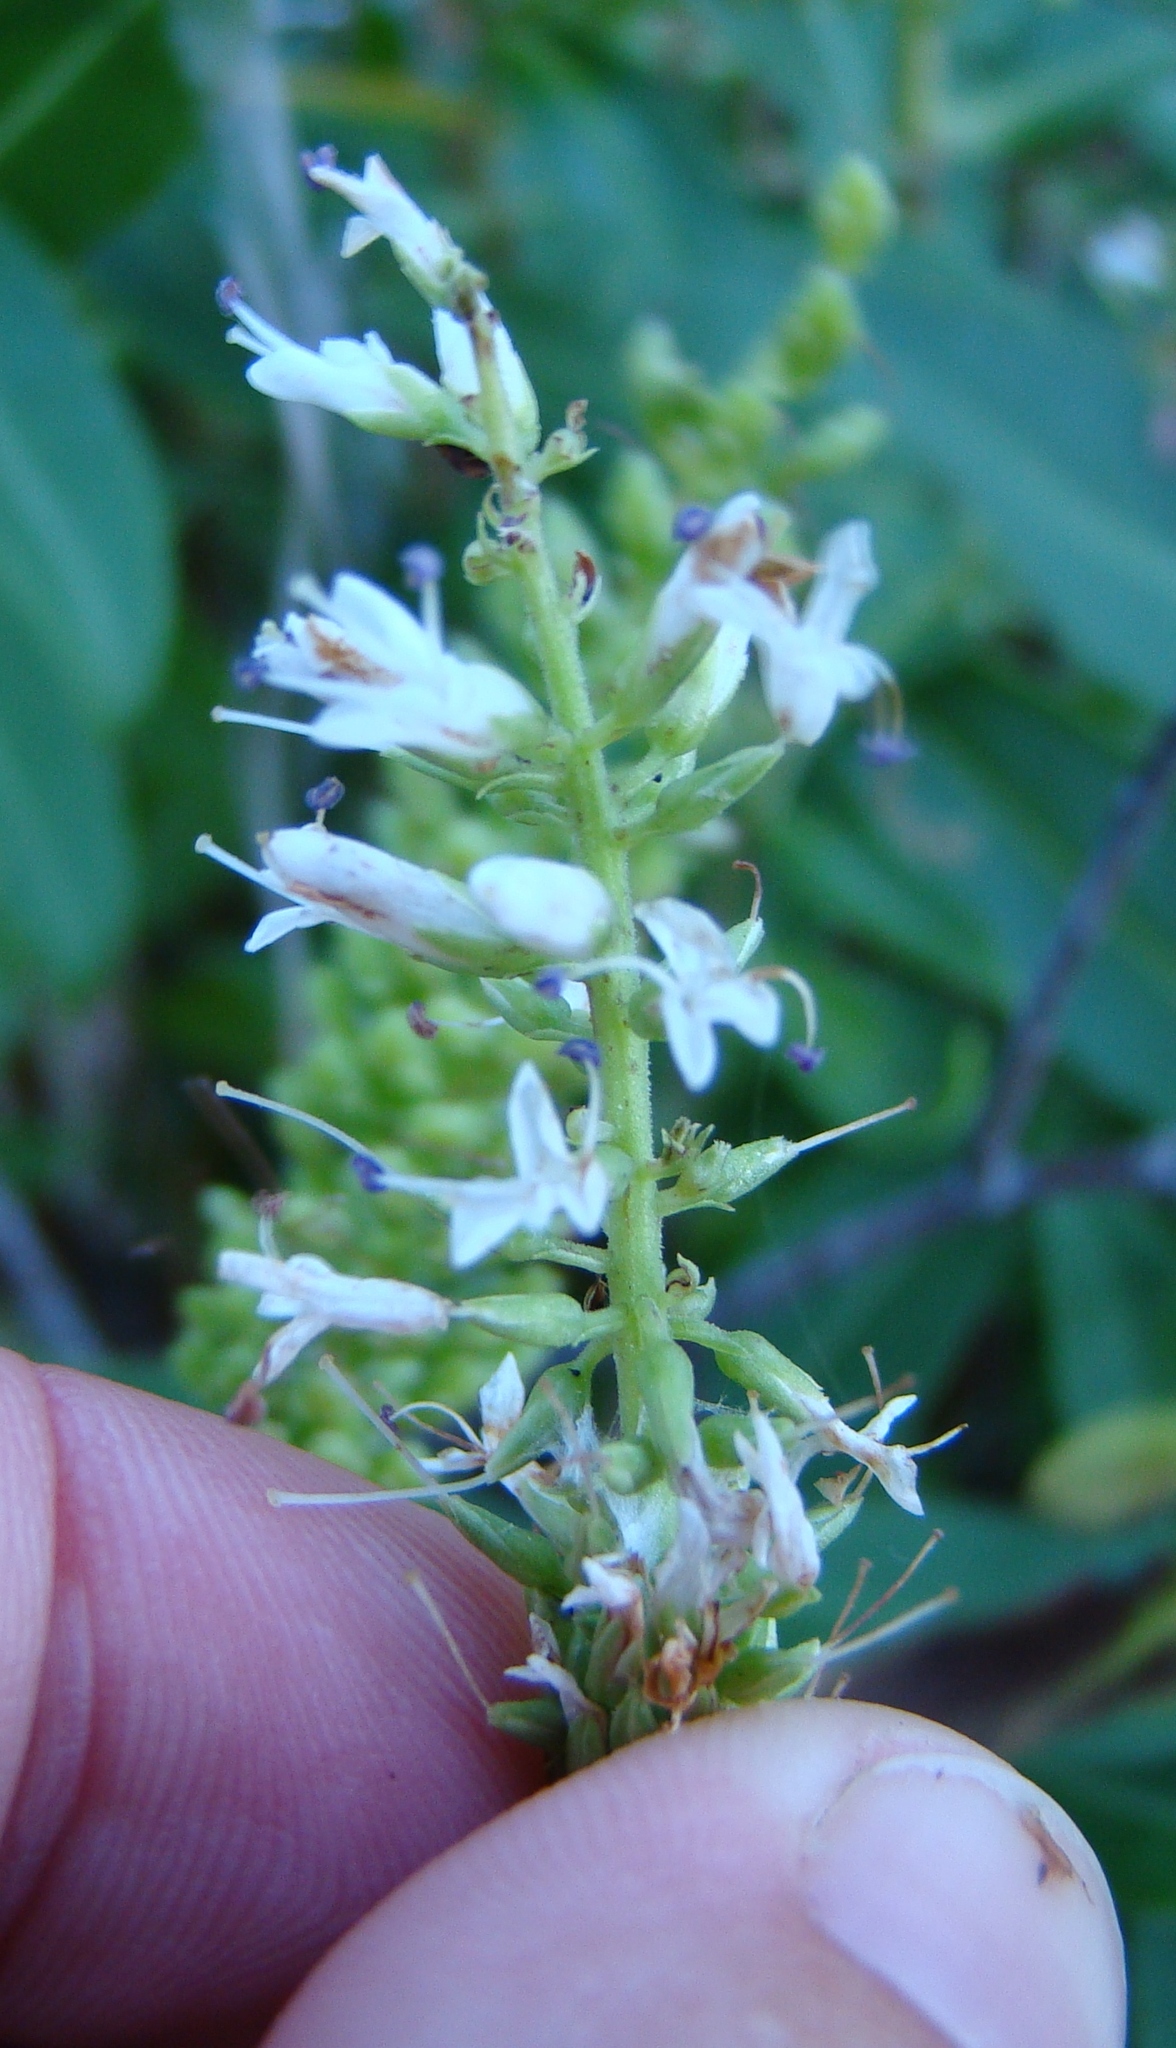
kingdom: Plantae
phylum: Tracheophyta
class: Magnoliopsida
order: Lamiales
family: Plantaginaceae
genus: Veronica
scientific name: Veronica stricta
